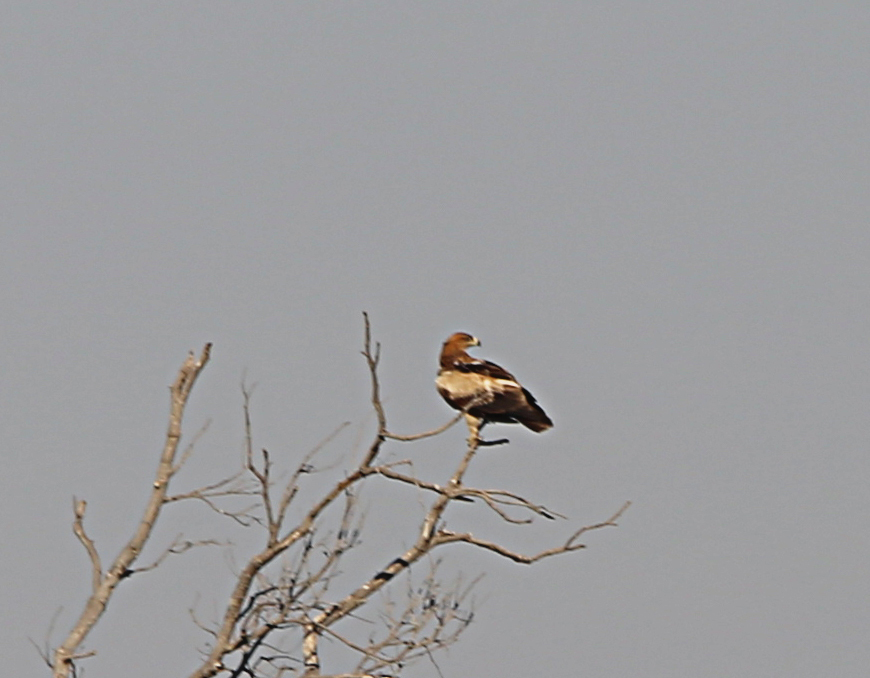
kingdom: Animalia
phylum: Chordata
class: Aves
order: Accipitriformes
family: Accipitridae
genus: Aquila
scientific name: Aquila rapax
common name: Tawny eagle
